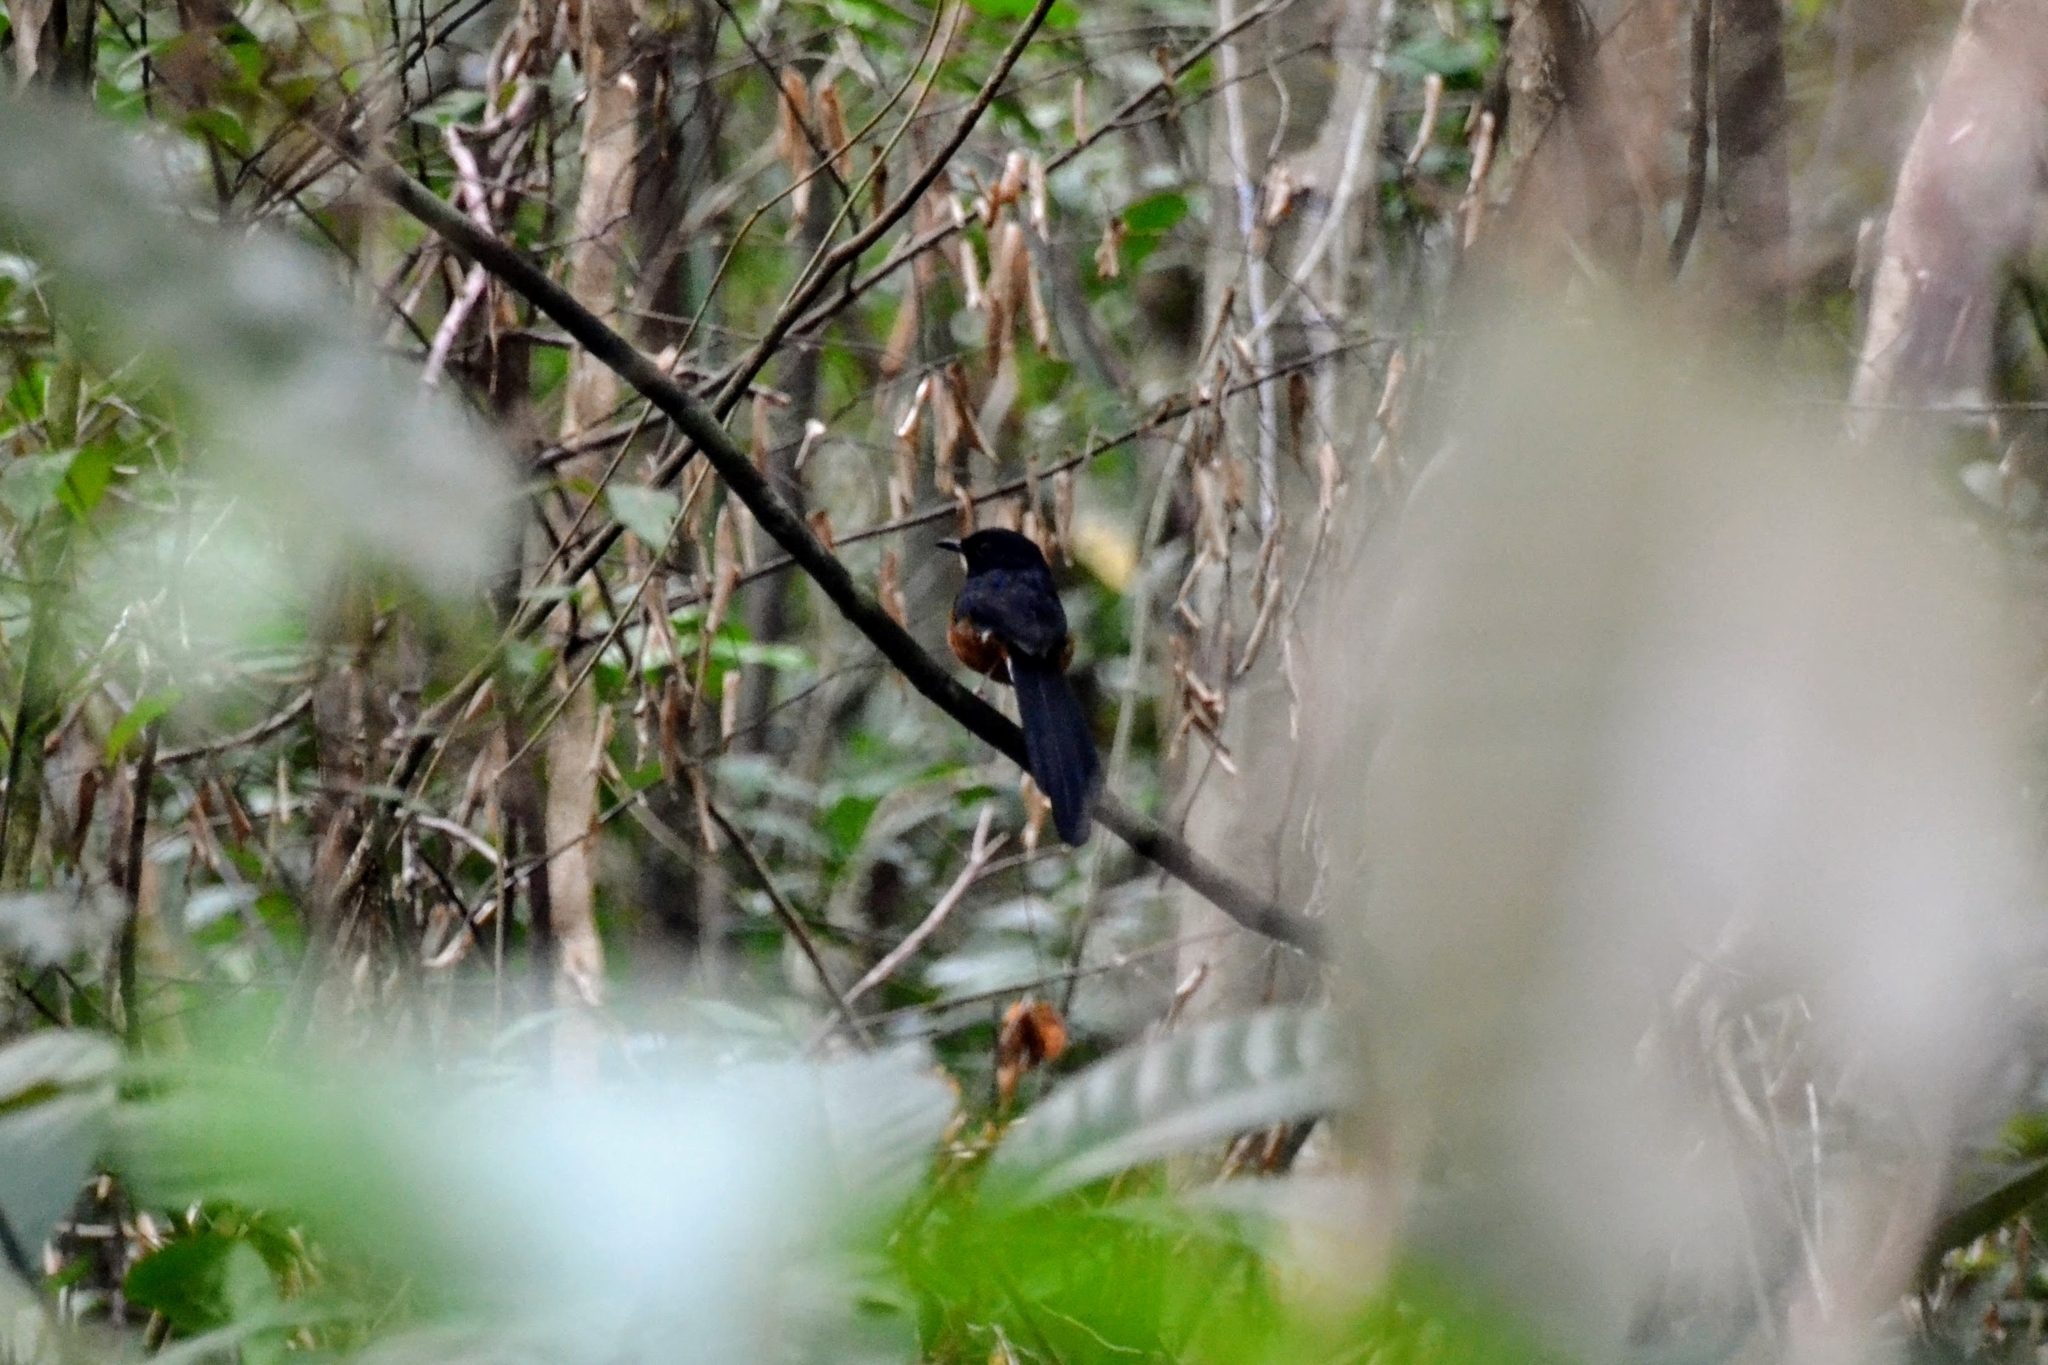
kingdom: Animalia
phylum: Chordata
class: Aves
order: Passeriformes
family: Muscicapidae
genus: Copsychus
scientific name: Copsychus malabaricus
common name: White-rumped shama
